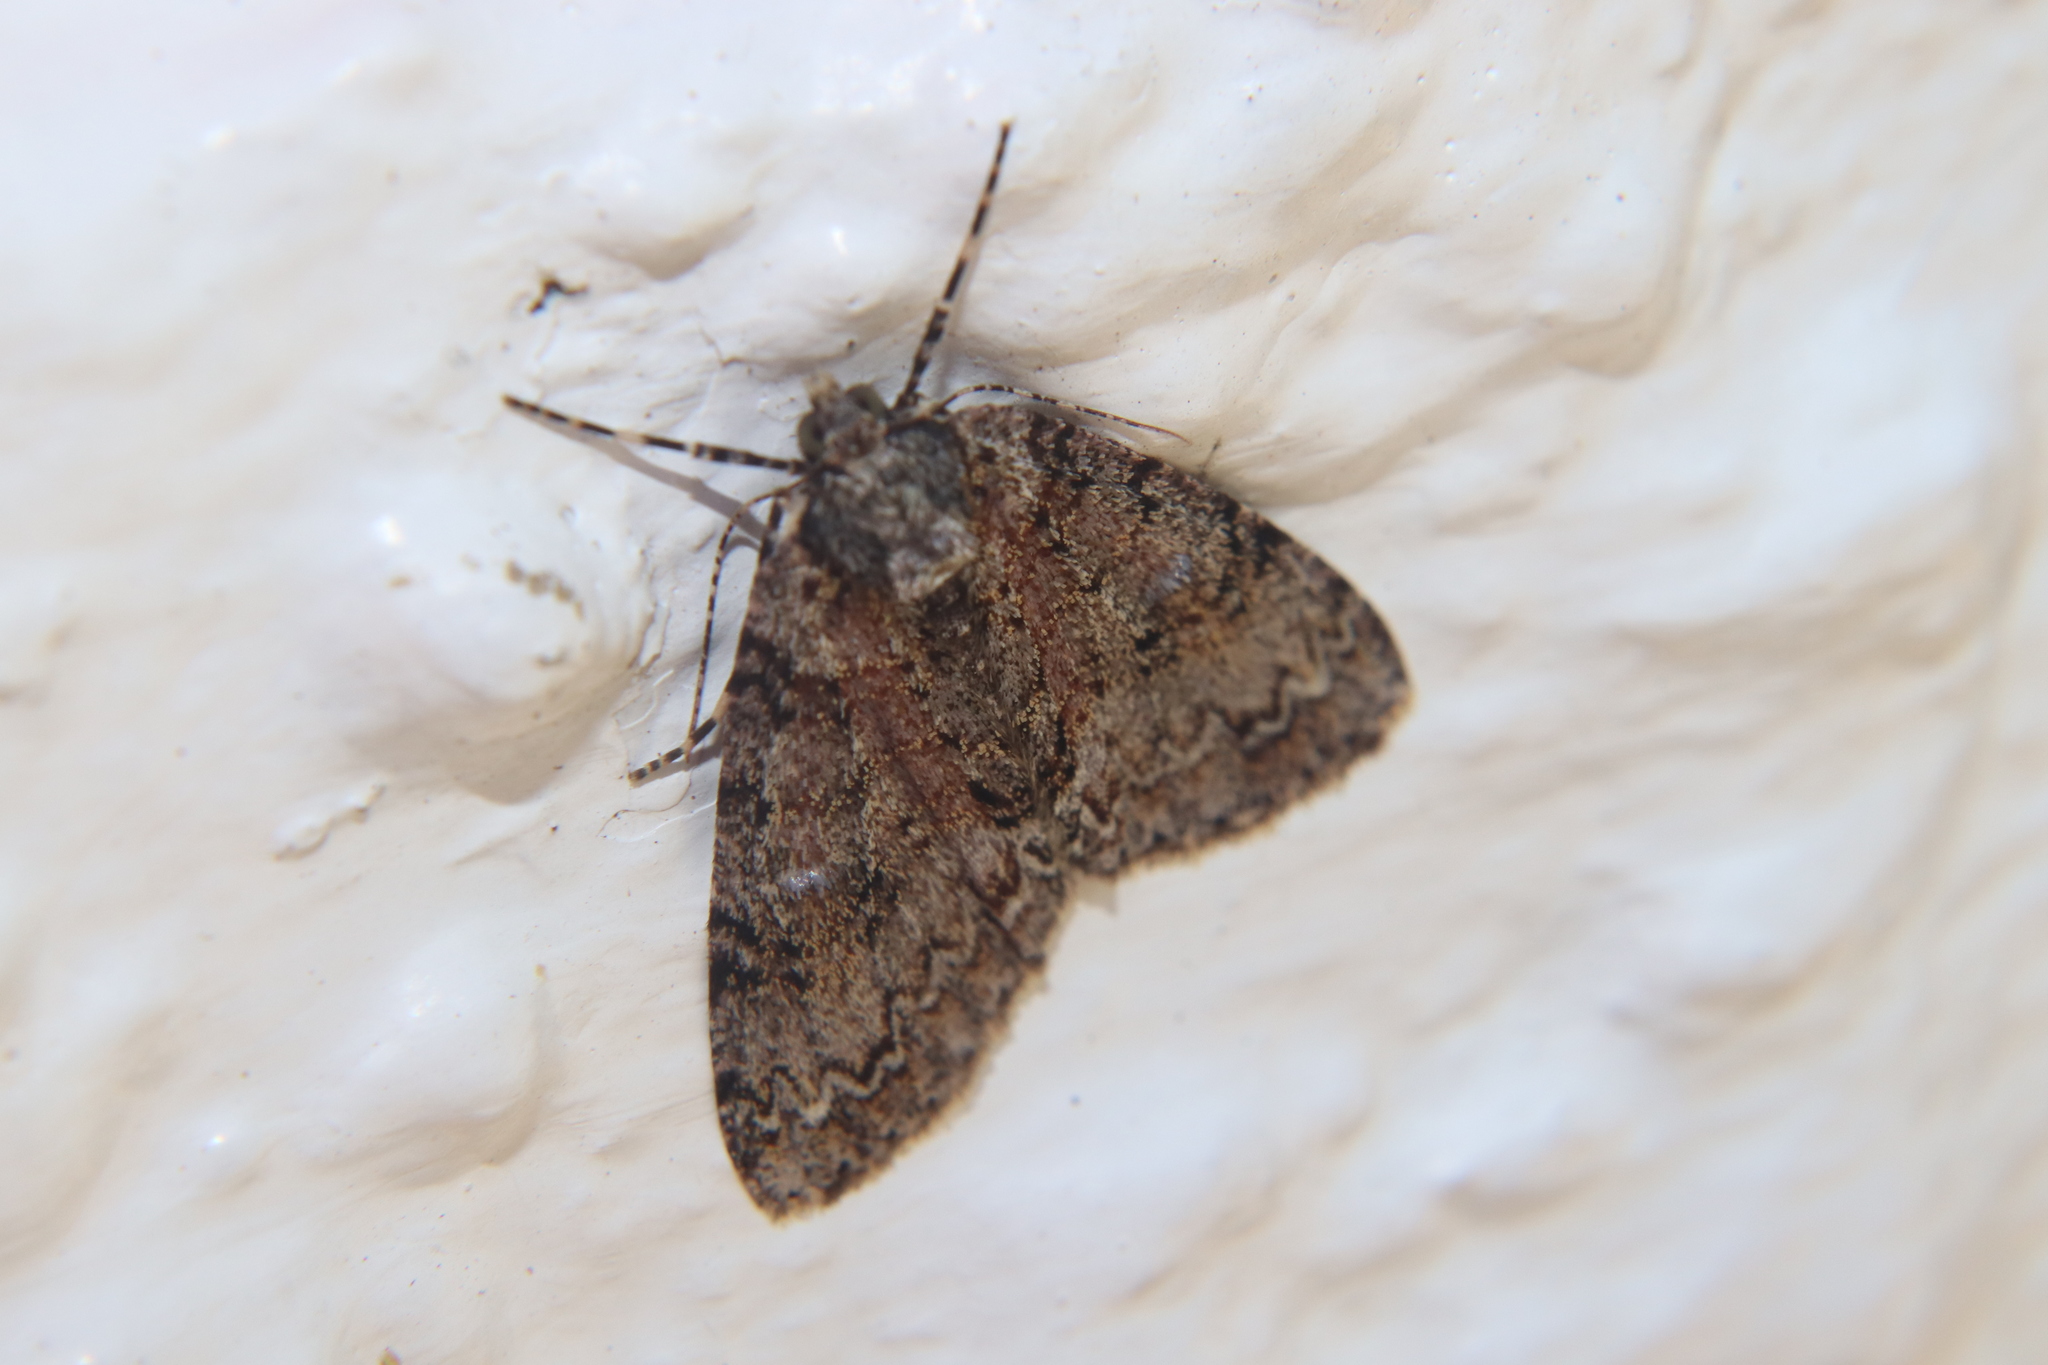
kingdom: Animalia
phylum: Arthropoda
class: Insecta
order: Lepidoptera
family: Geometridae
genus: Pseudocoremia
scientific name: Pseudocoremia suavis
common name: Common forest looper
